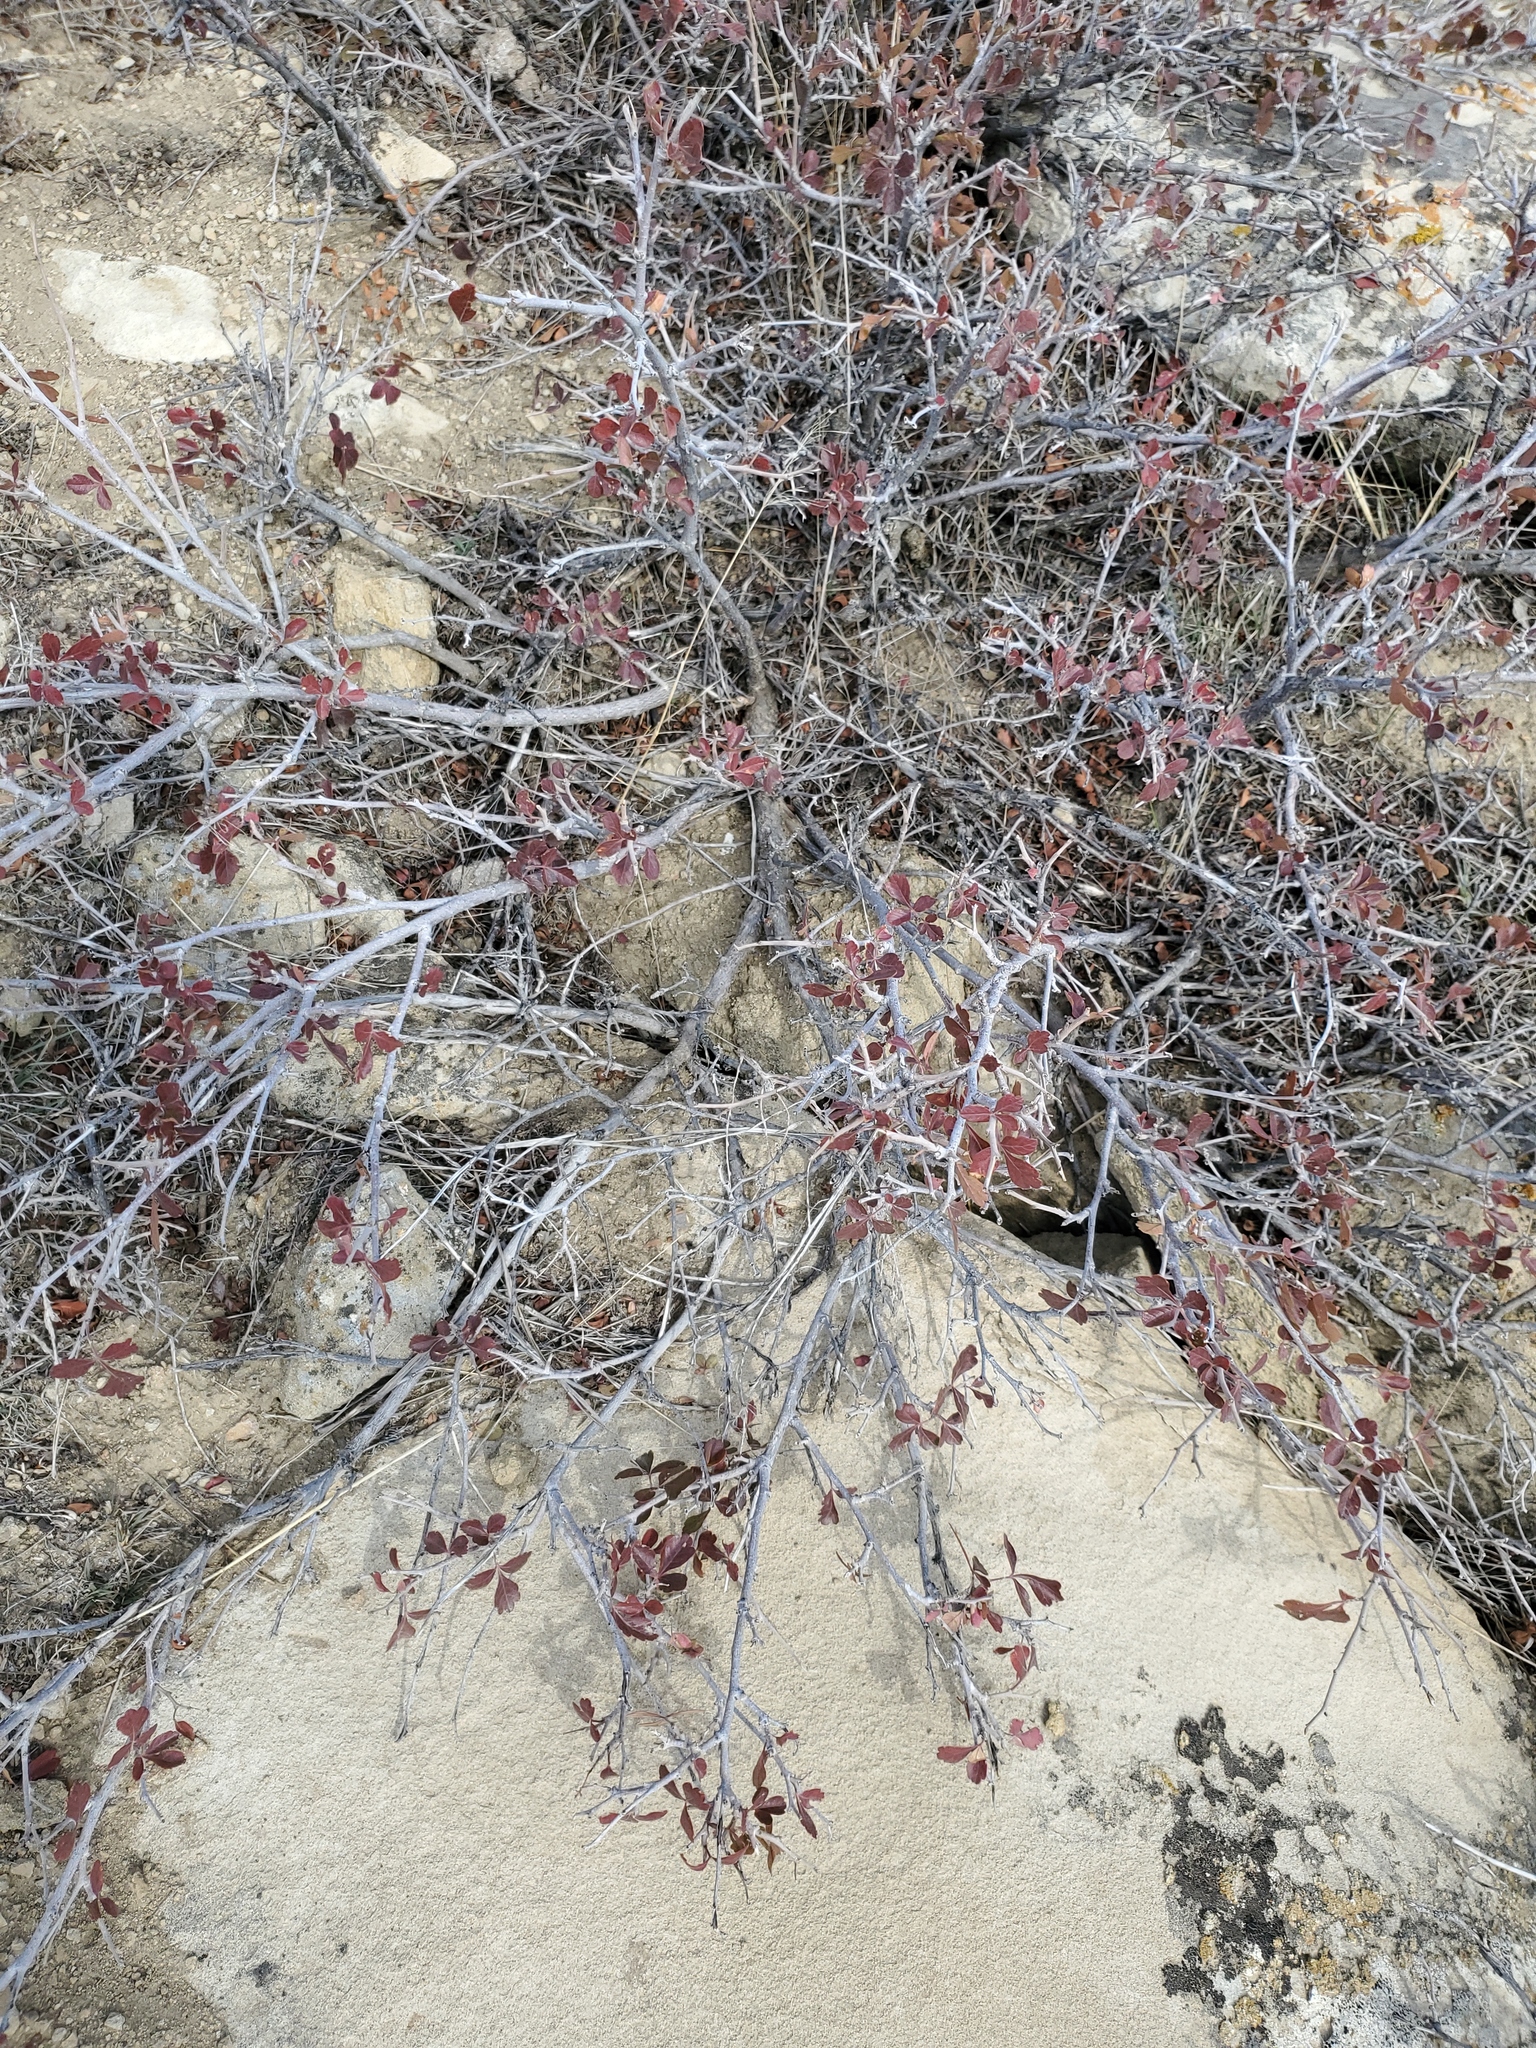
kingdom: Plantae
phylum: Tracheophyta
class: Magnoliopsida
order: Sapindales
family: Anacardiaceae
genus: Rhus
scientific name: Rhus aromatica
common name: Aromatic sumac
